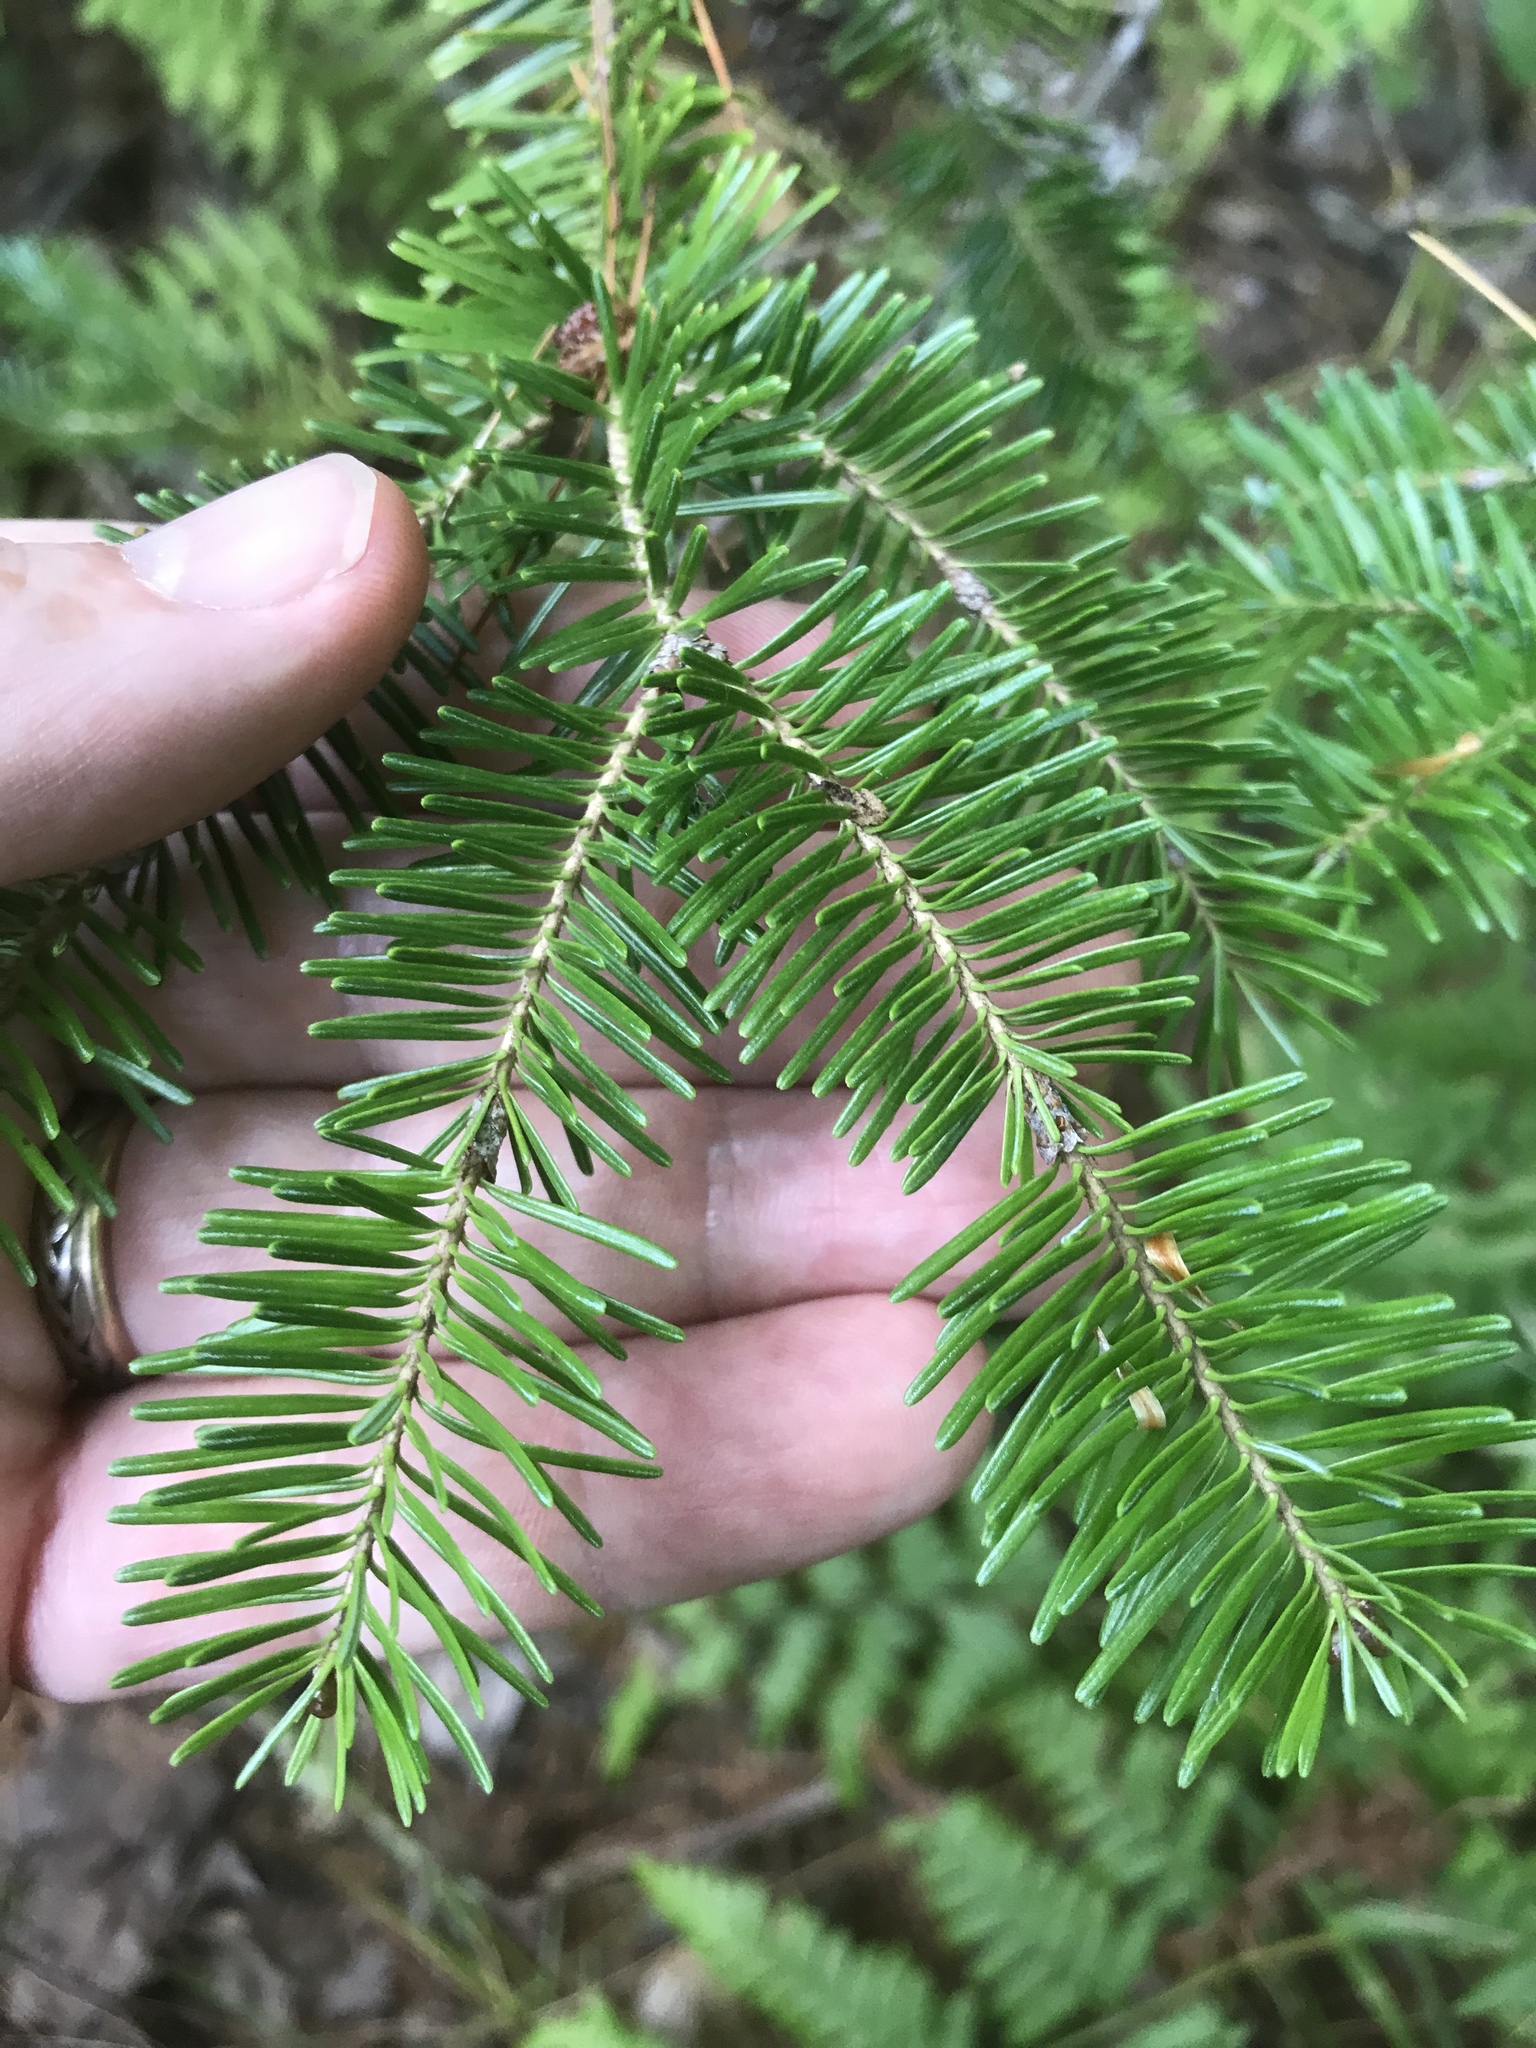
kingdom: Plantae
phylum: Tracheophyta
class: Pinopsida
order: Pinales
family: Pinaceae
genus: Abies
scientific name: Abies balsamea
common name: Balsam fir
